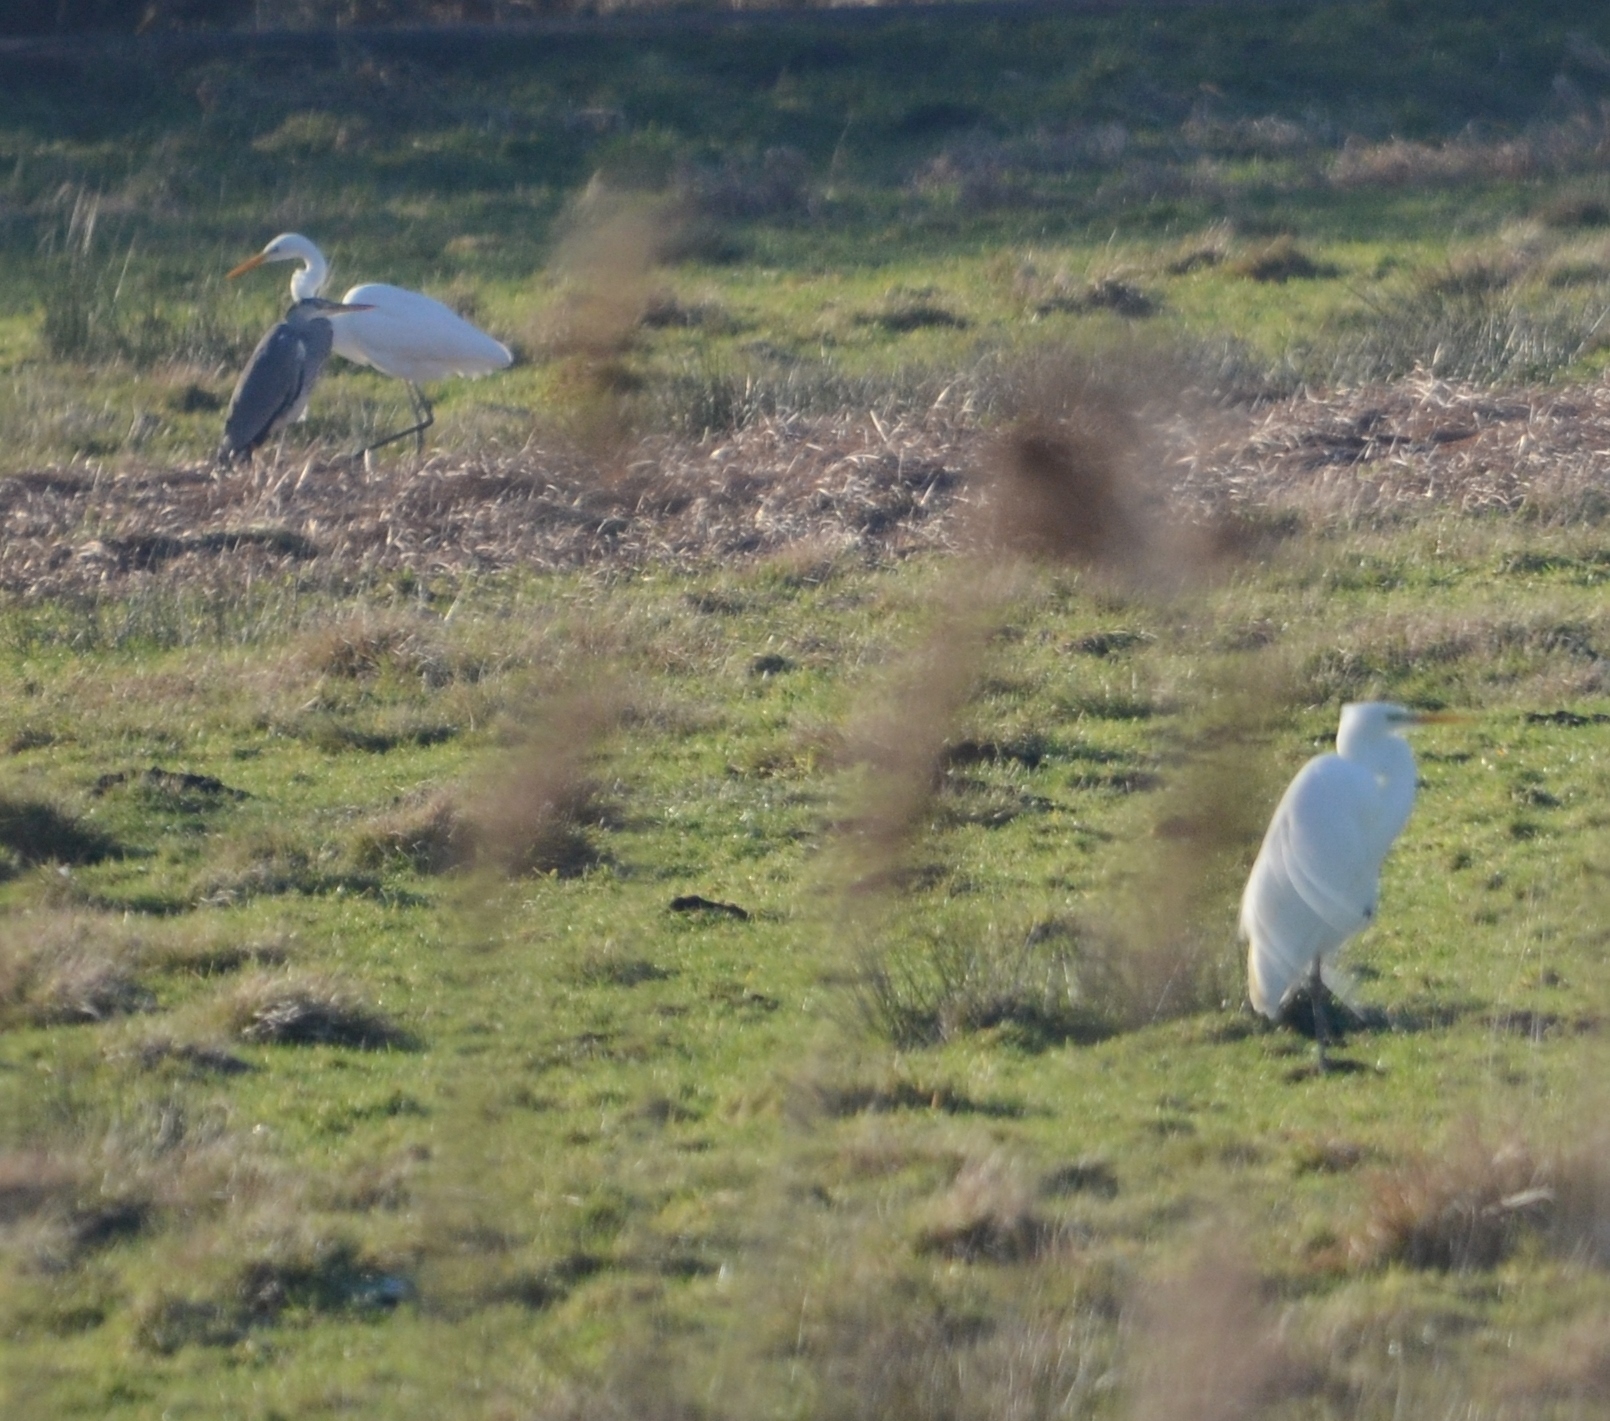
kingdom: Animalia
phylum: Chordata
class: Aves
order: Pelecaniformes
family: Ardeidae
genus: Ardea
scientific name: Ardea alba
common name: Great egret
